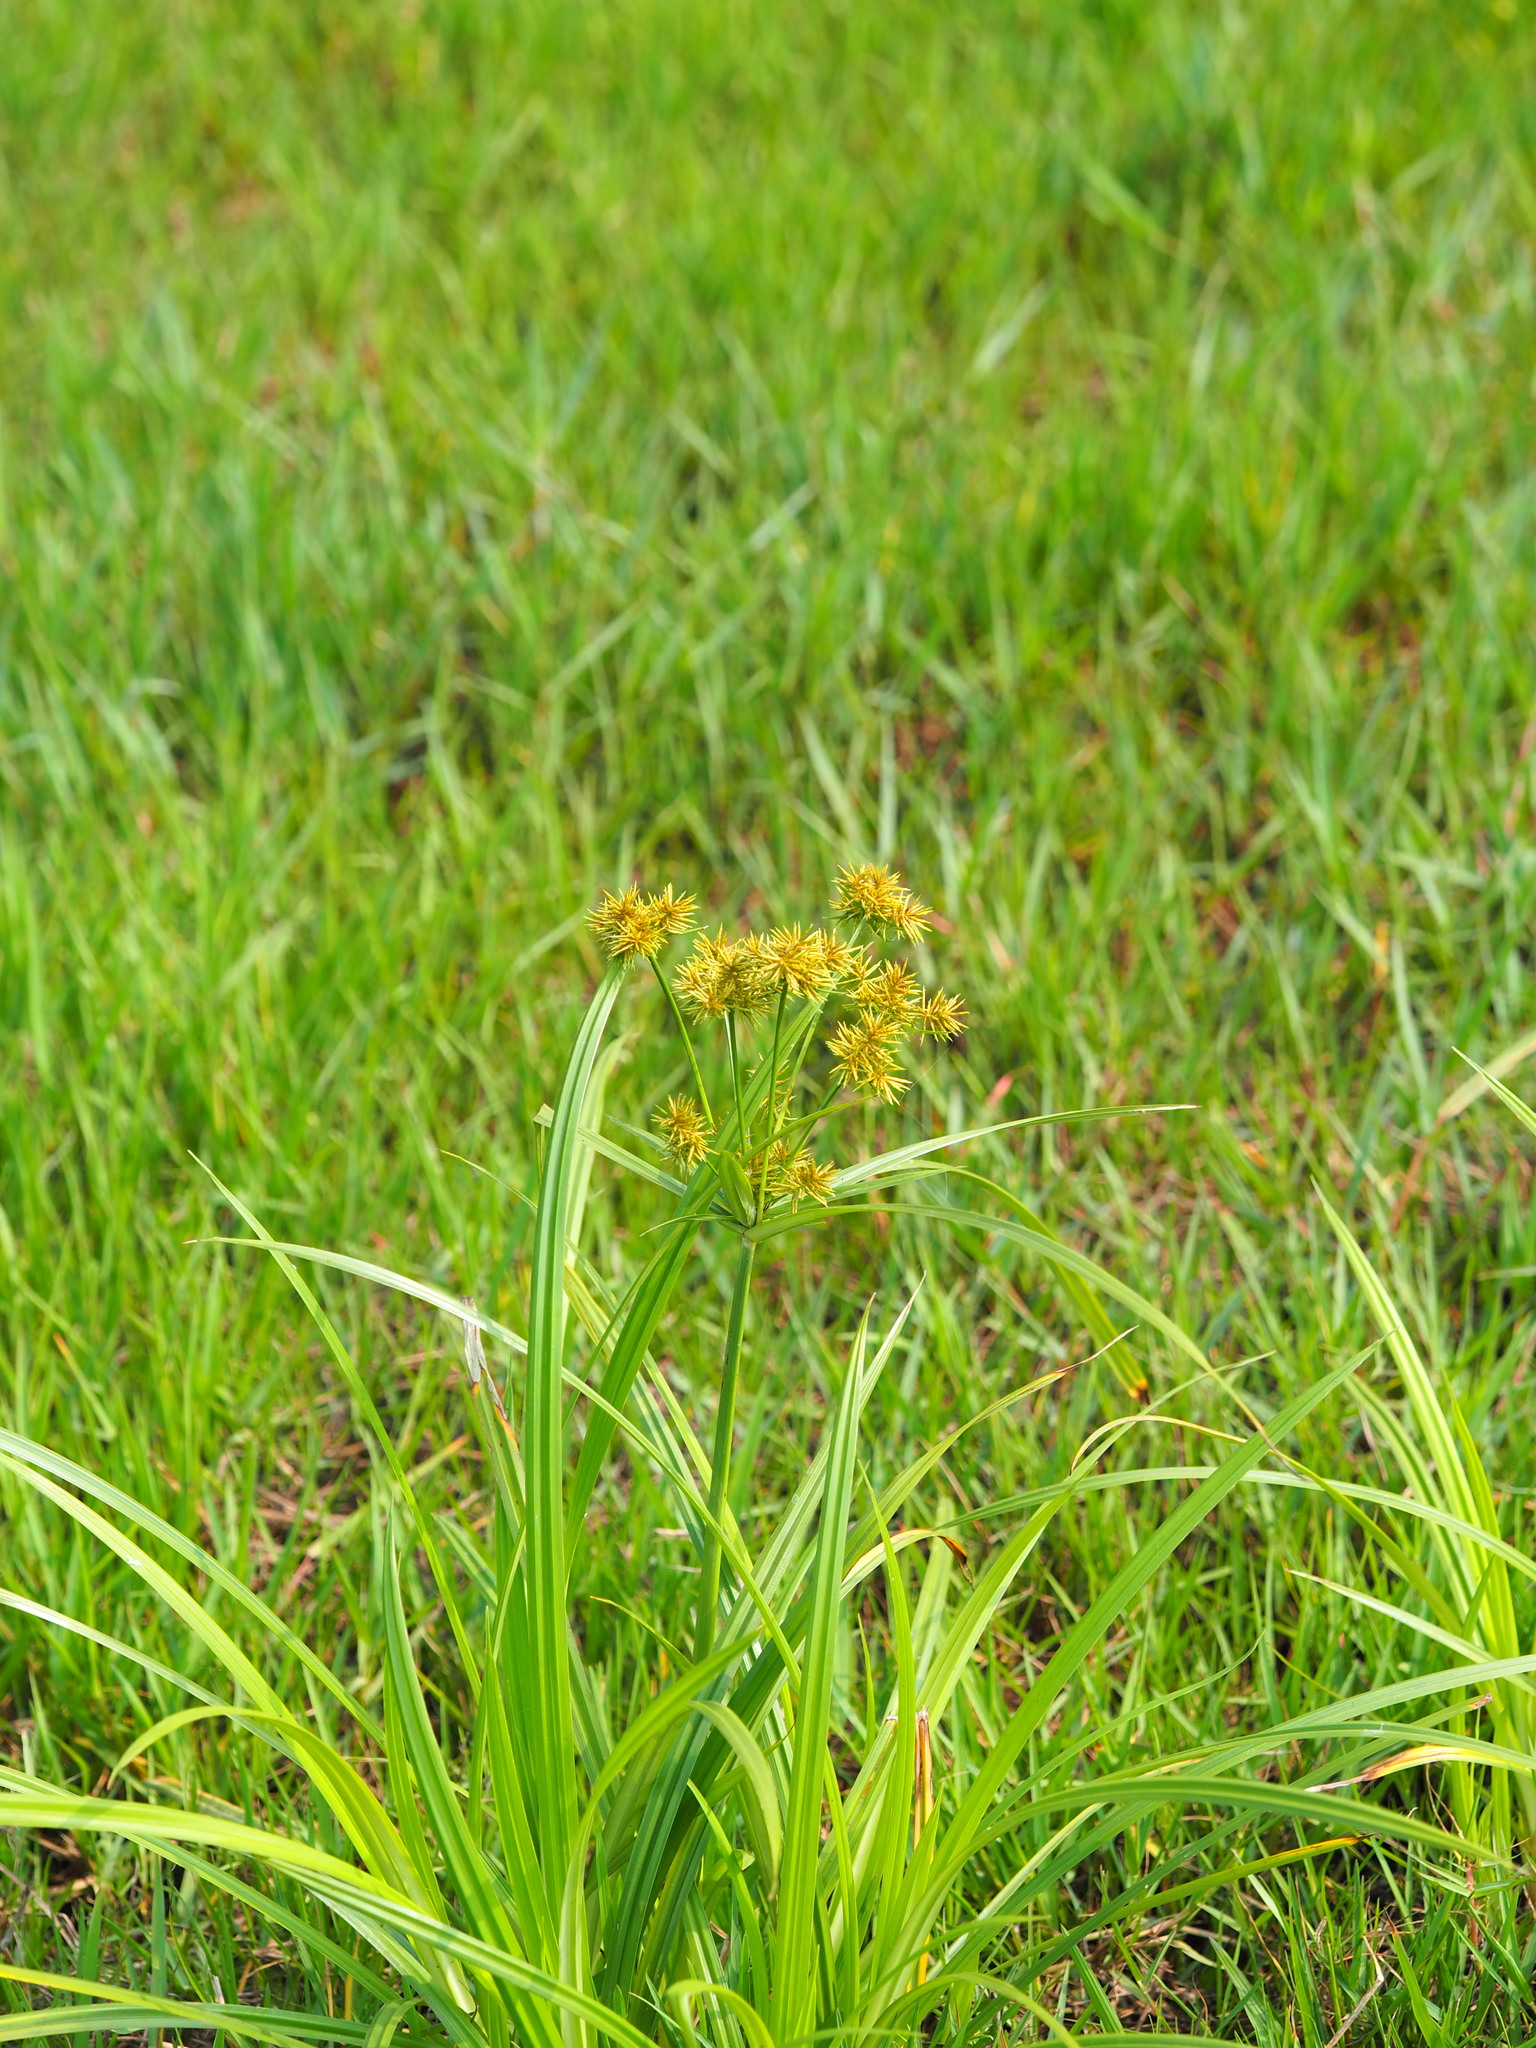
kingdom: Plantae
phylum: Tracheophyta
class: Liliopsida
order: Poales
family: Cyperaceae
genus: Cyperus
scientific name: Cyperus odoratus
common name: Fragrant flatsedge
